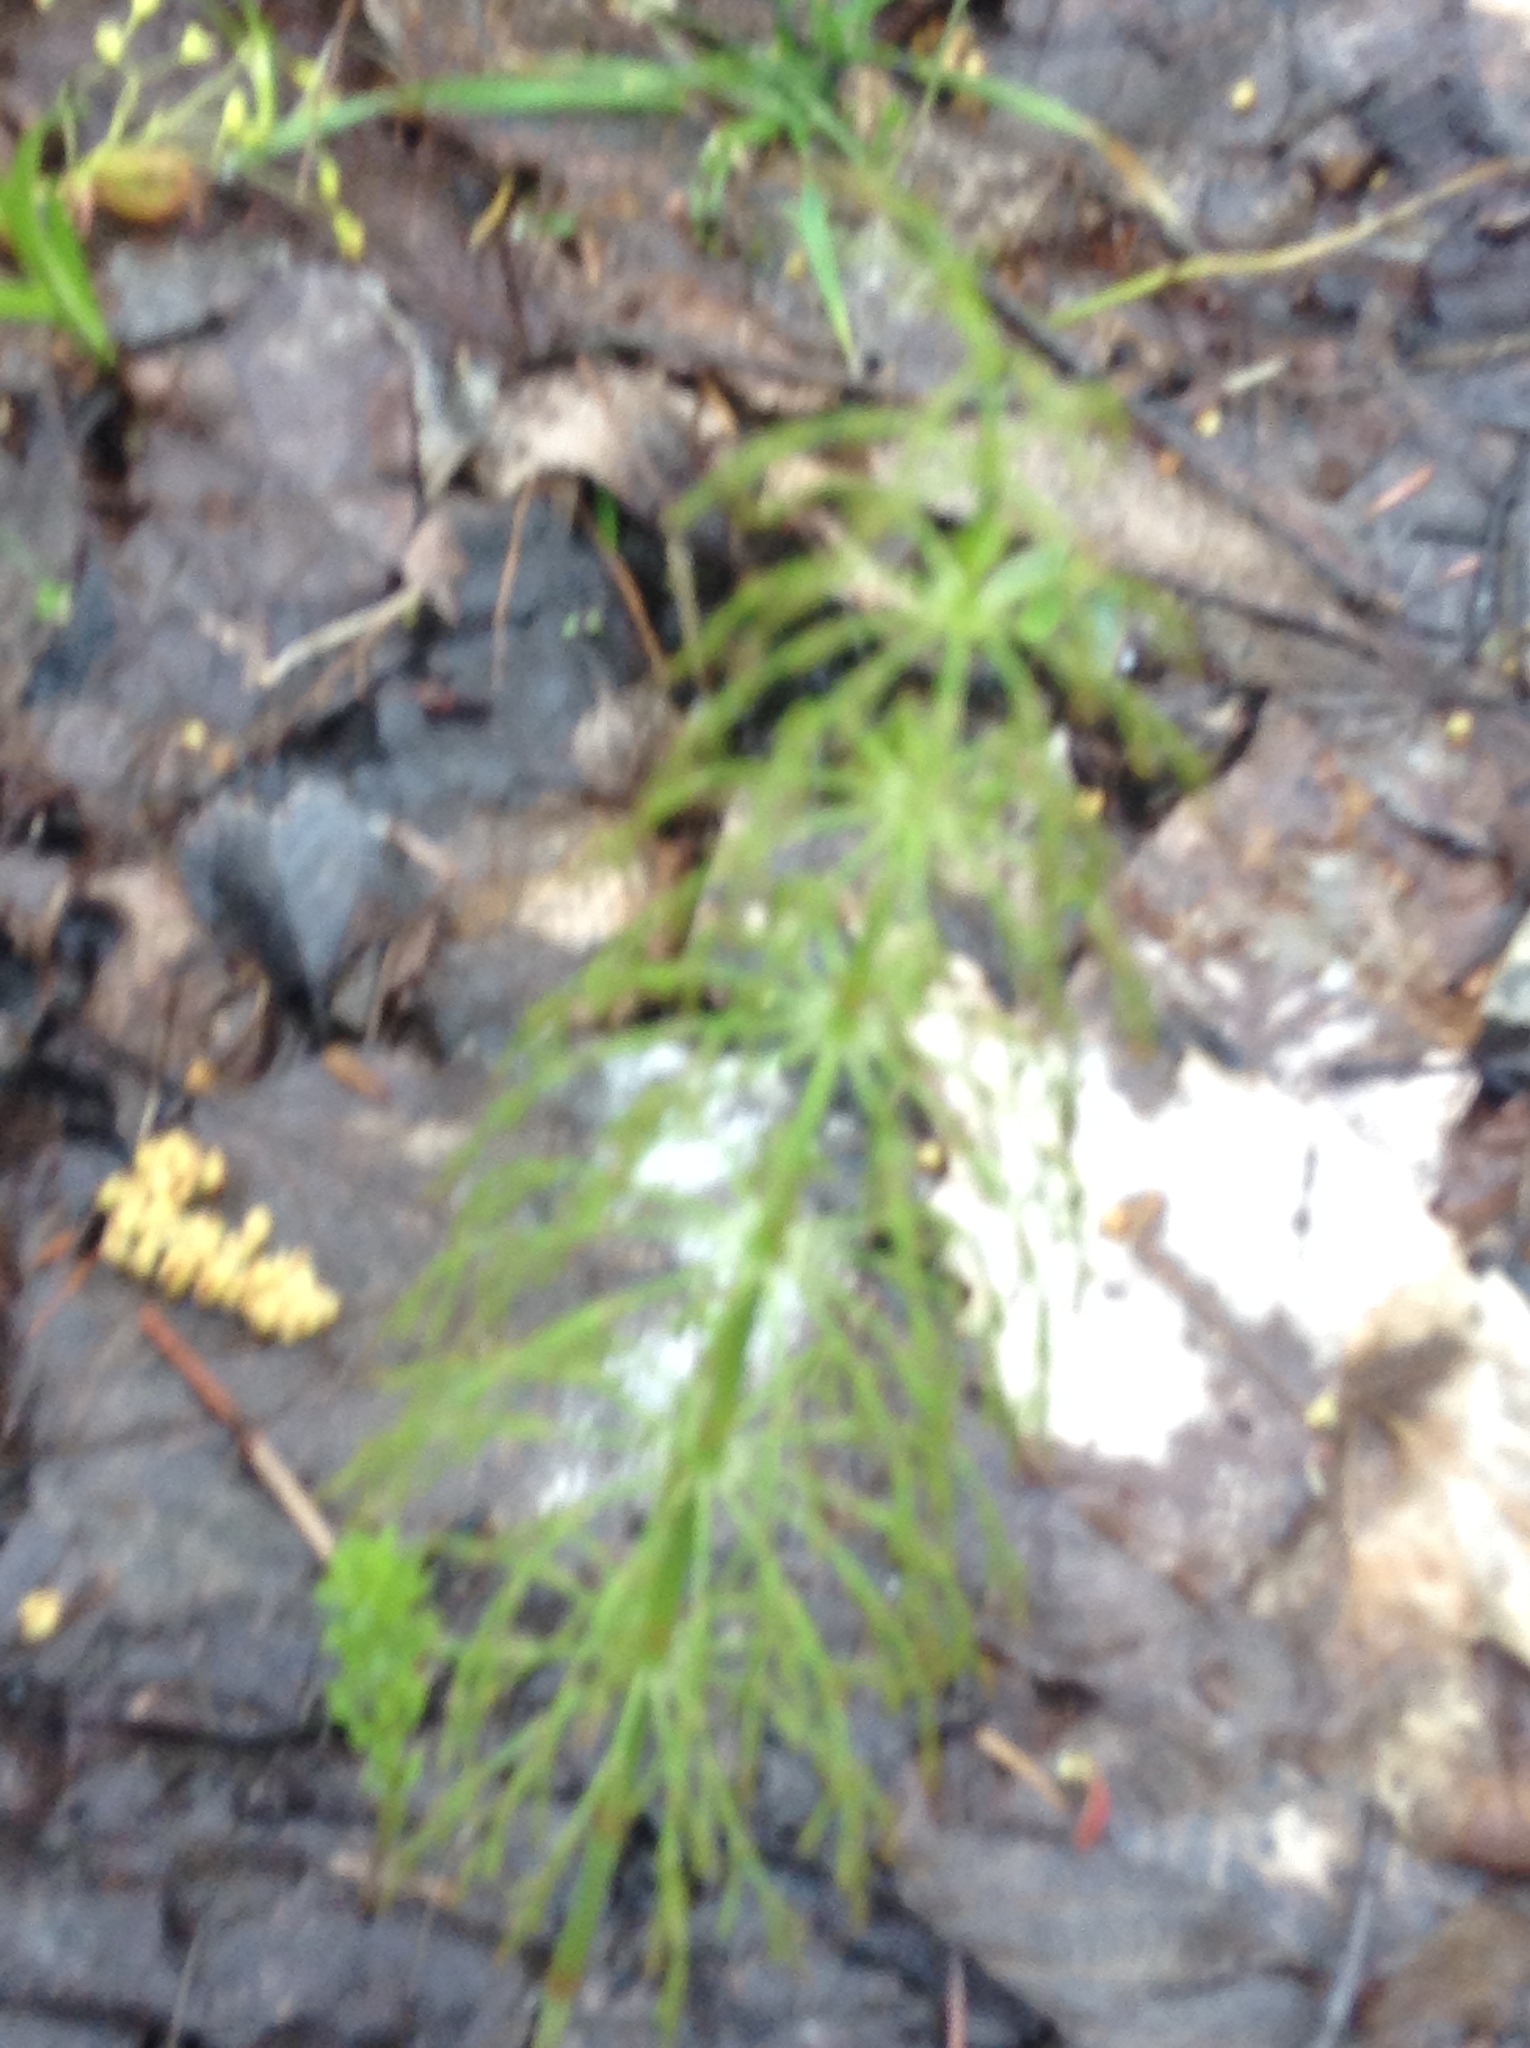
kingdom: Plantae
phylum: Tracheophyta
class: Polypodiopsida
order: Equisetales
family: Equisetaceae
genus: Equisetum
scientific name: Equisetum sylvaticum
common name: Wood horsetail
